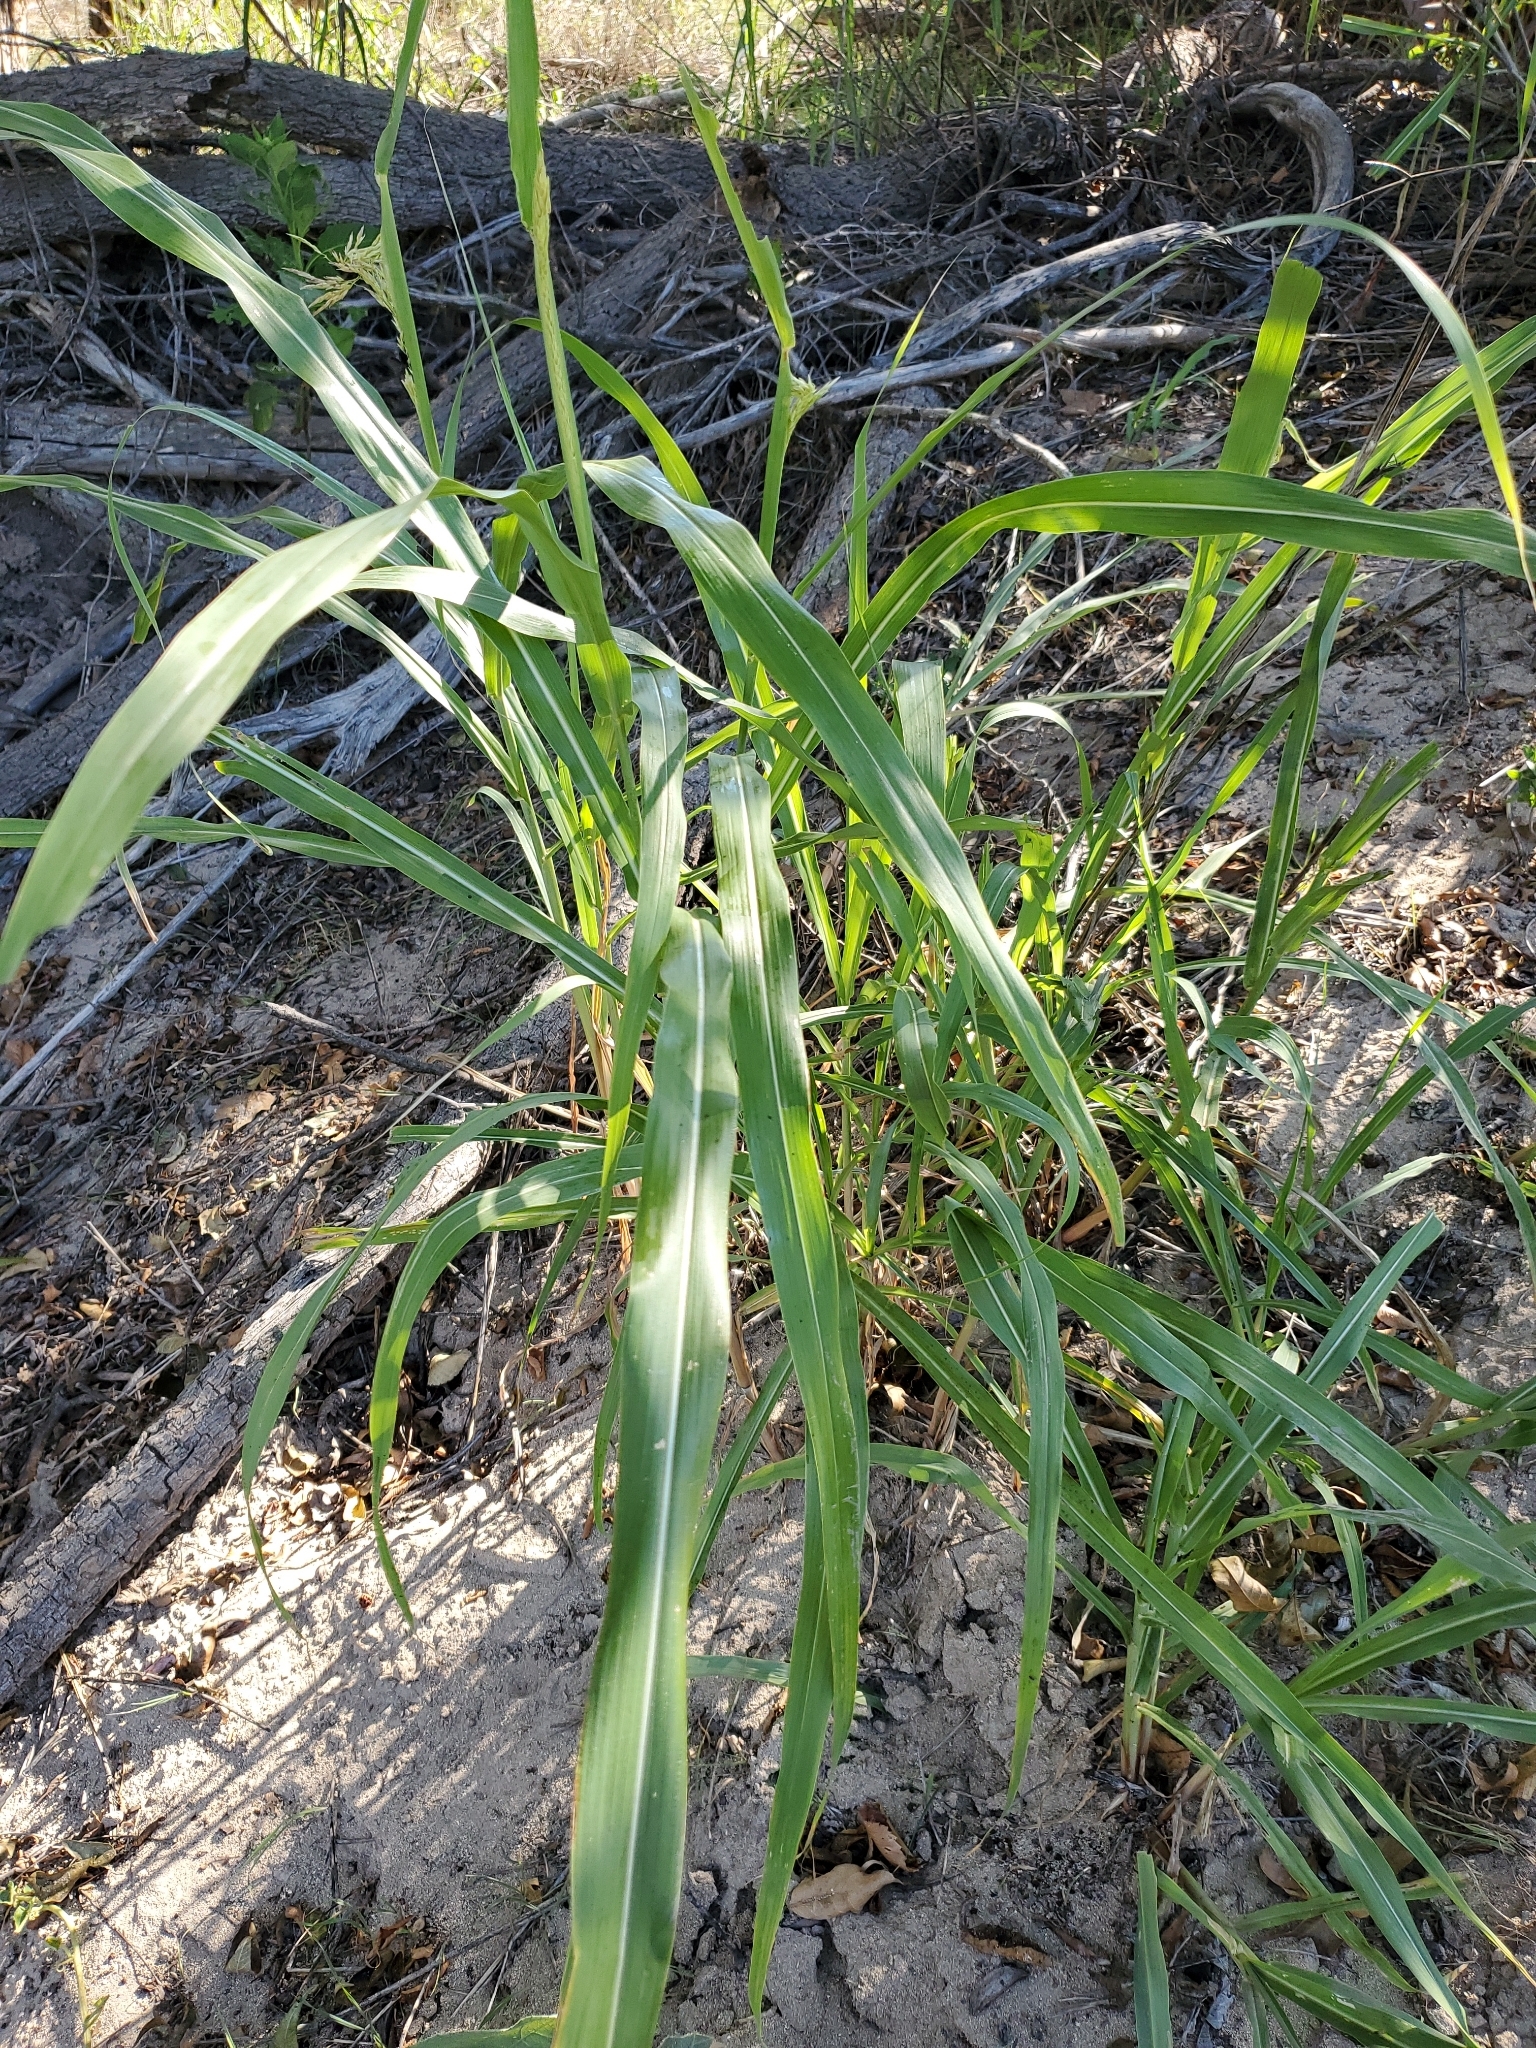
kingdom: Plantae
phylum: Tracheophyta
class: Liliopsida
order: Poales
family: Poaceae
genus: Sorghum
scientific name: Sorghum halepense
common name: Johnson-grass
